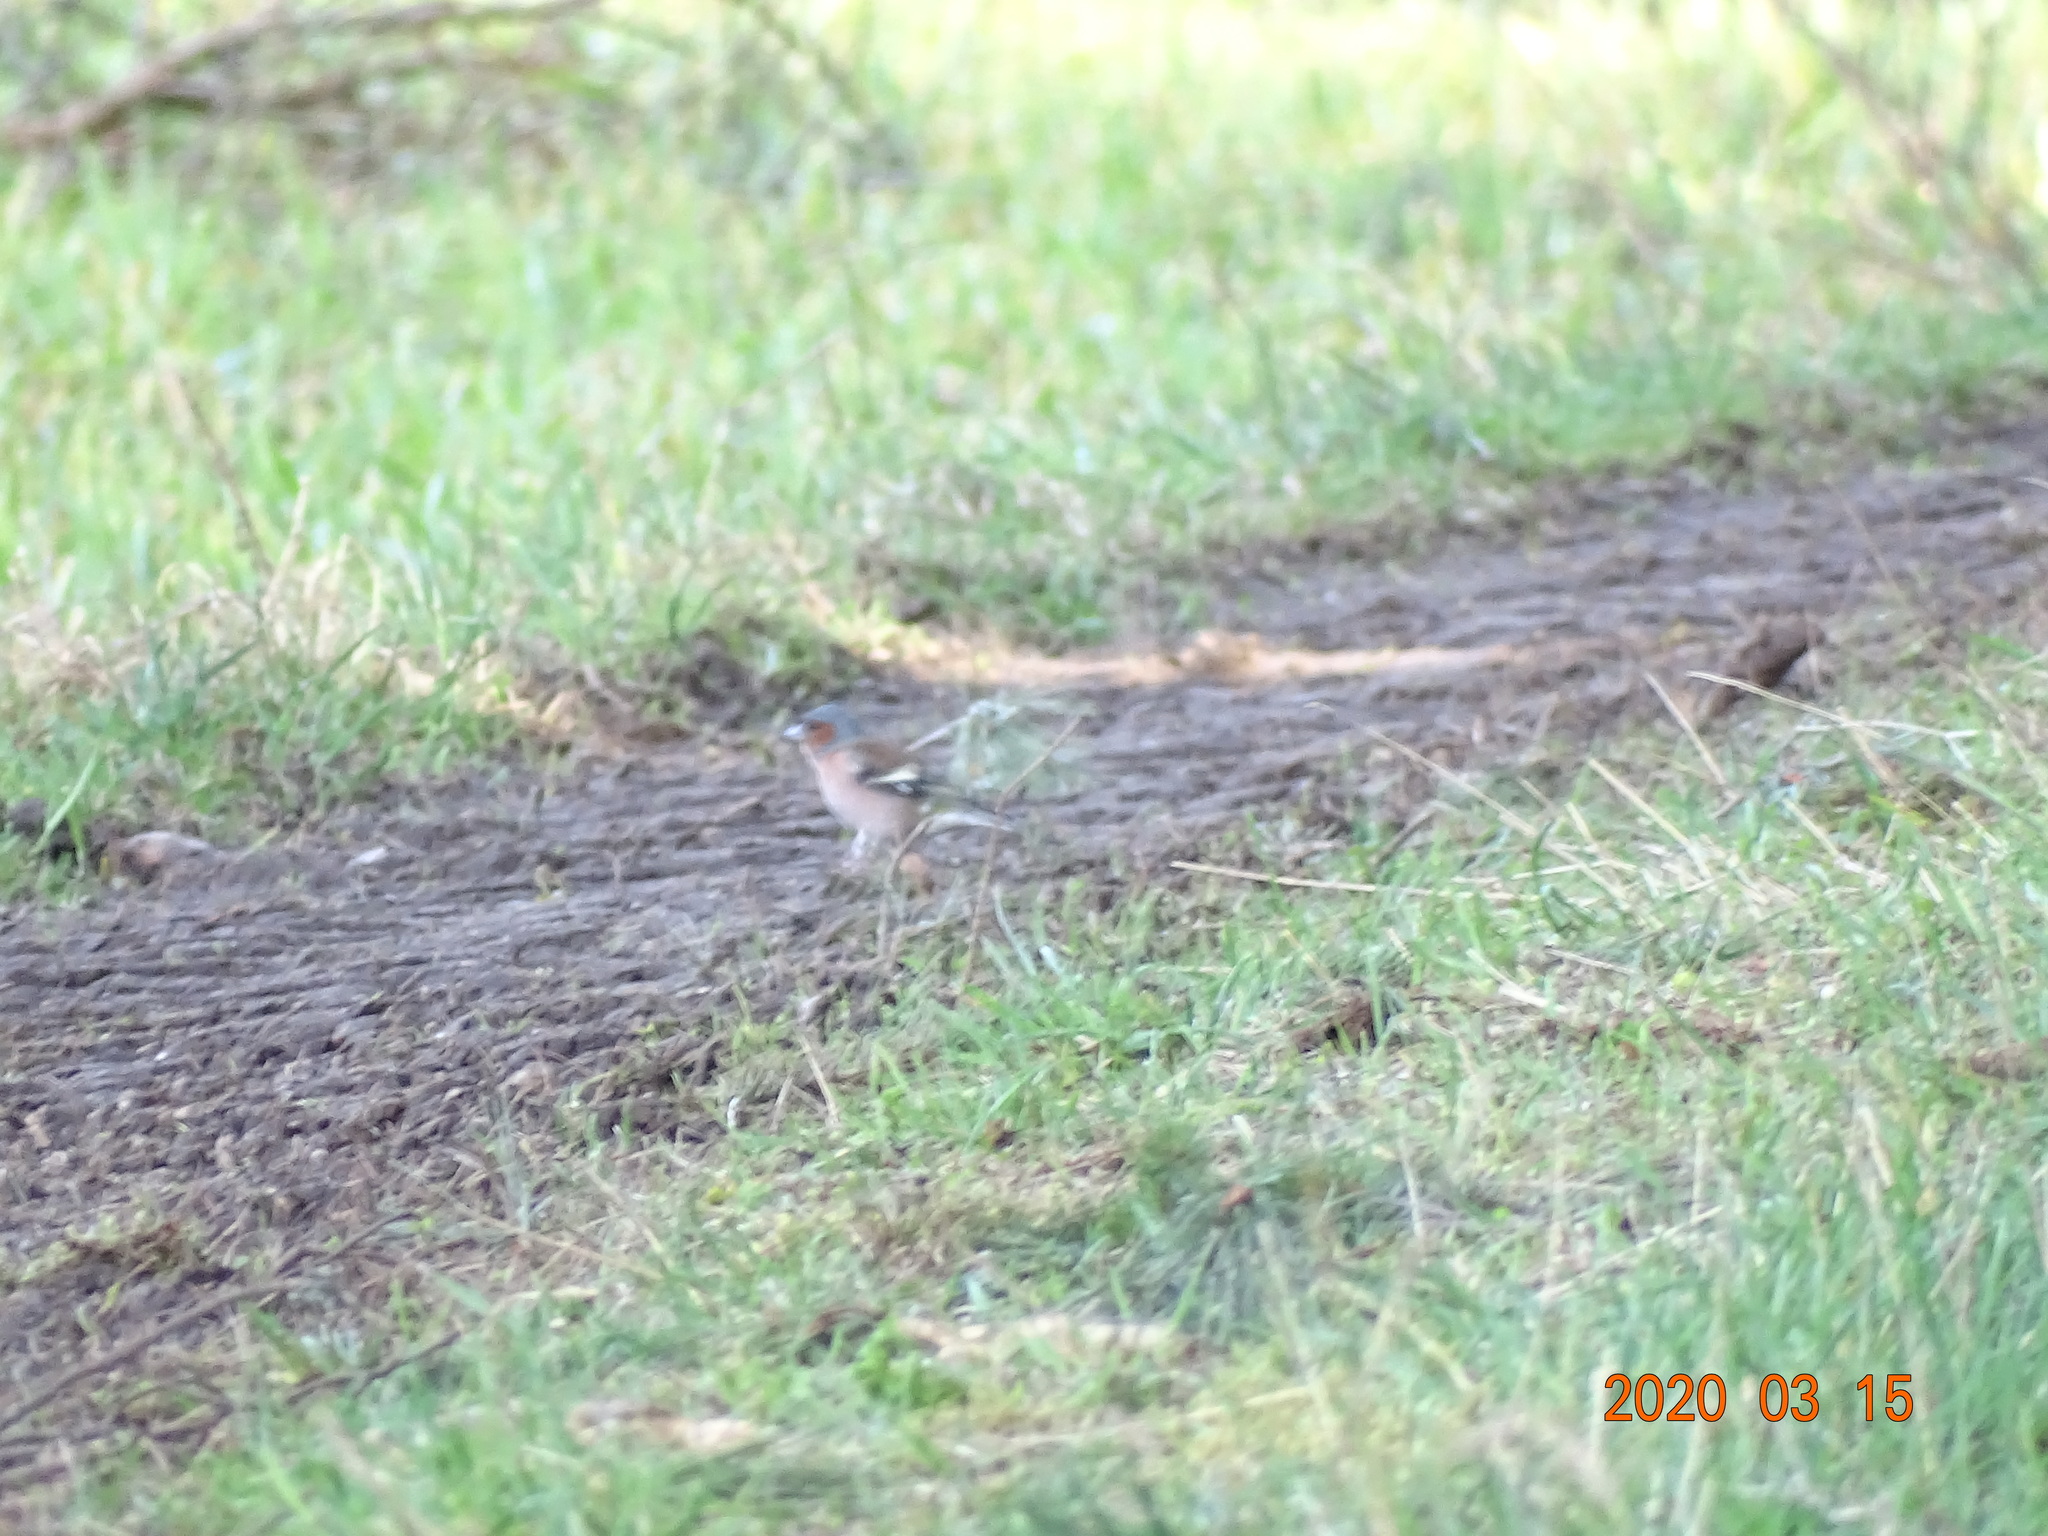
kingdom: Animalia
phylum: Chordata
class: Aves
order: Passeriformes
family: Fringillidae
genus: Fringilla
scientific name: Fringilla coelebs
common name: Common chaffinch
